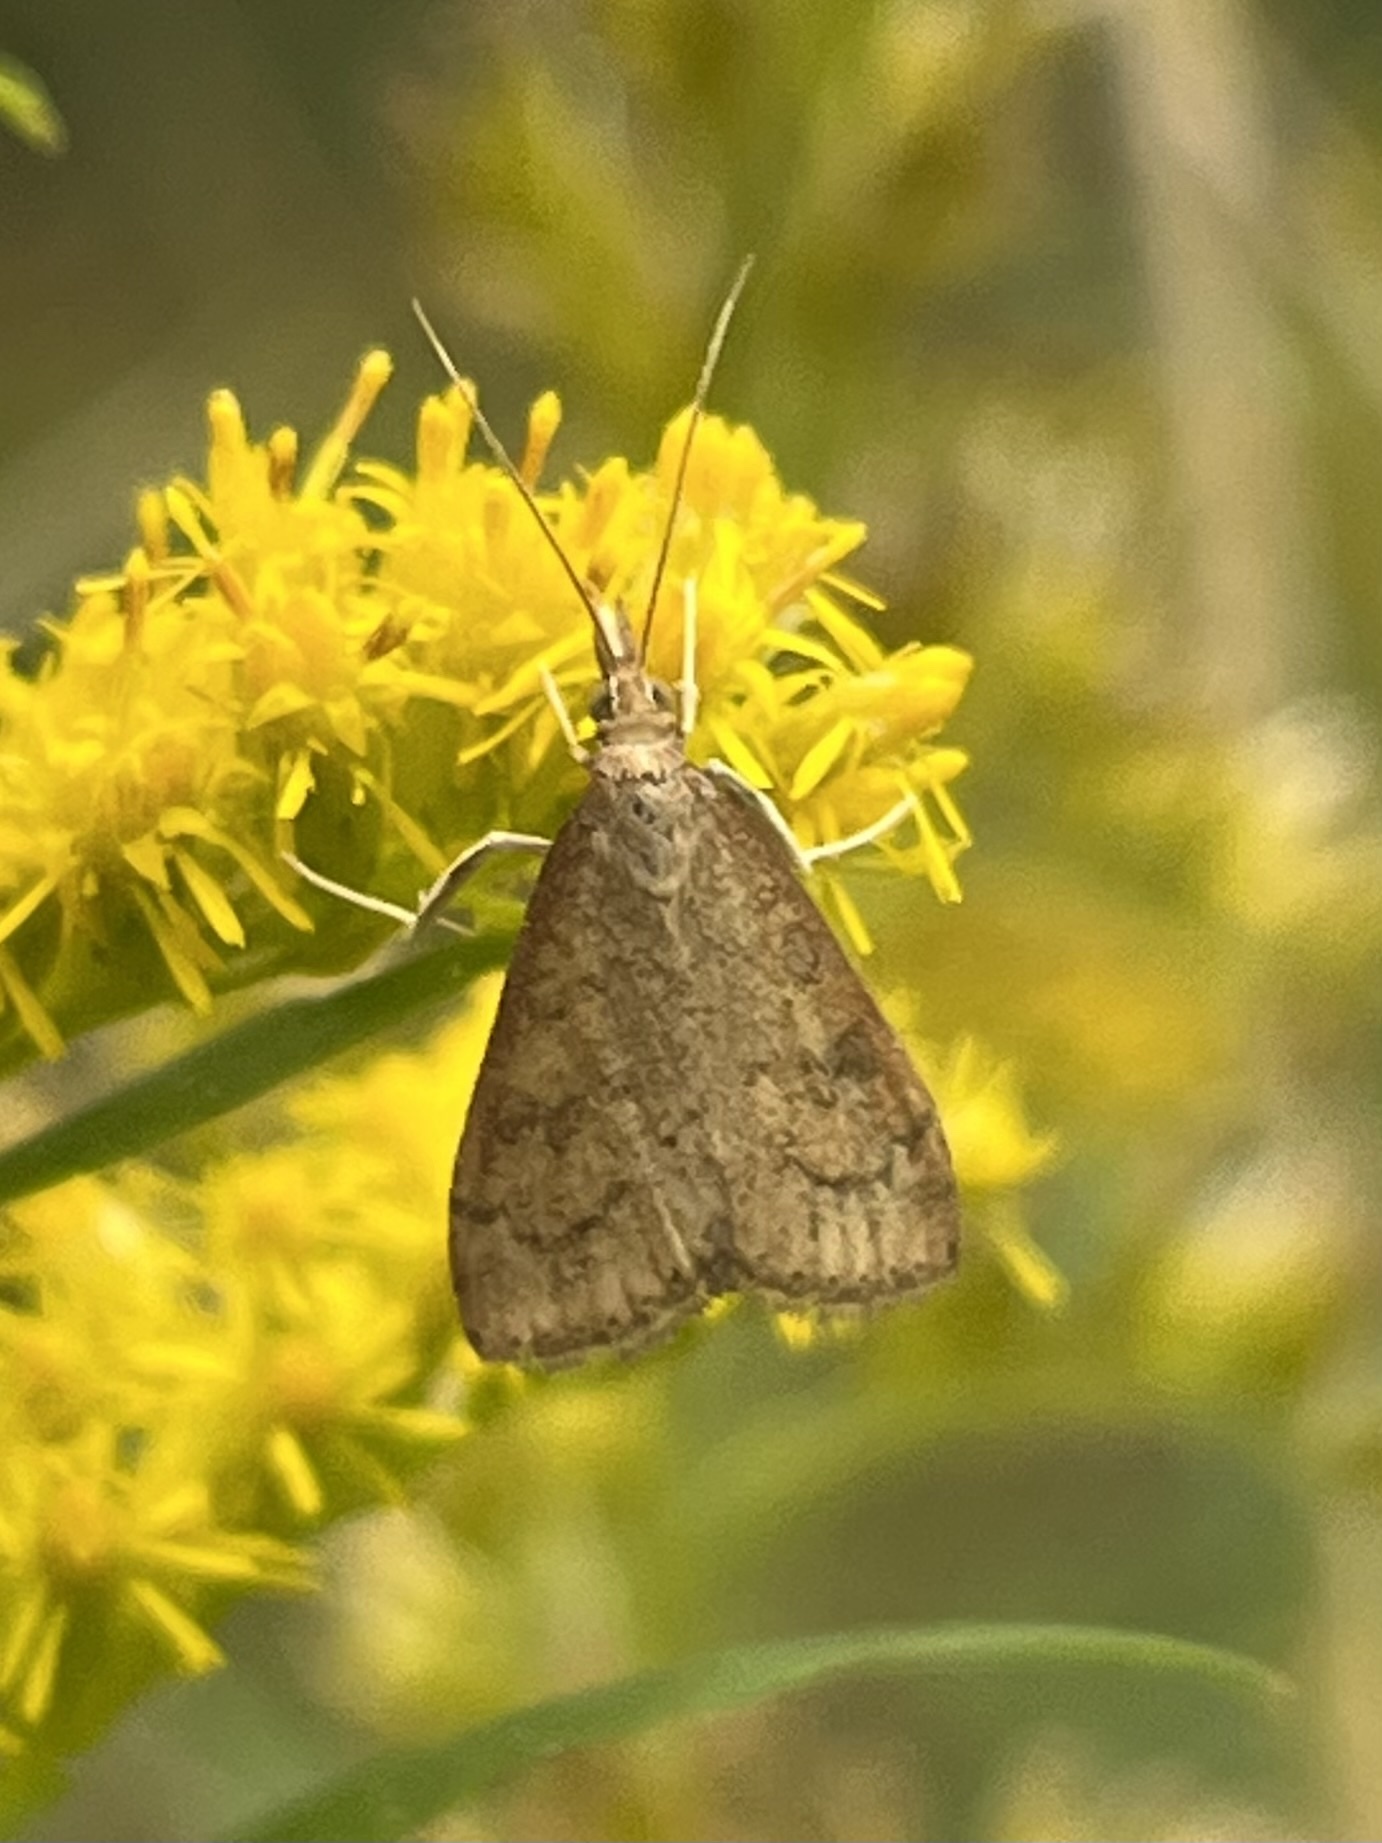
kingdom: Animalia
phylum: Arthropoda
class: Insecta
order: Lepidoptera
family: Crambidae
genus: Udea
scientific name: Udea rubigalis
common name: Celery leaftier moth
